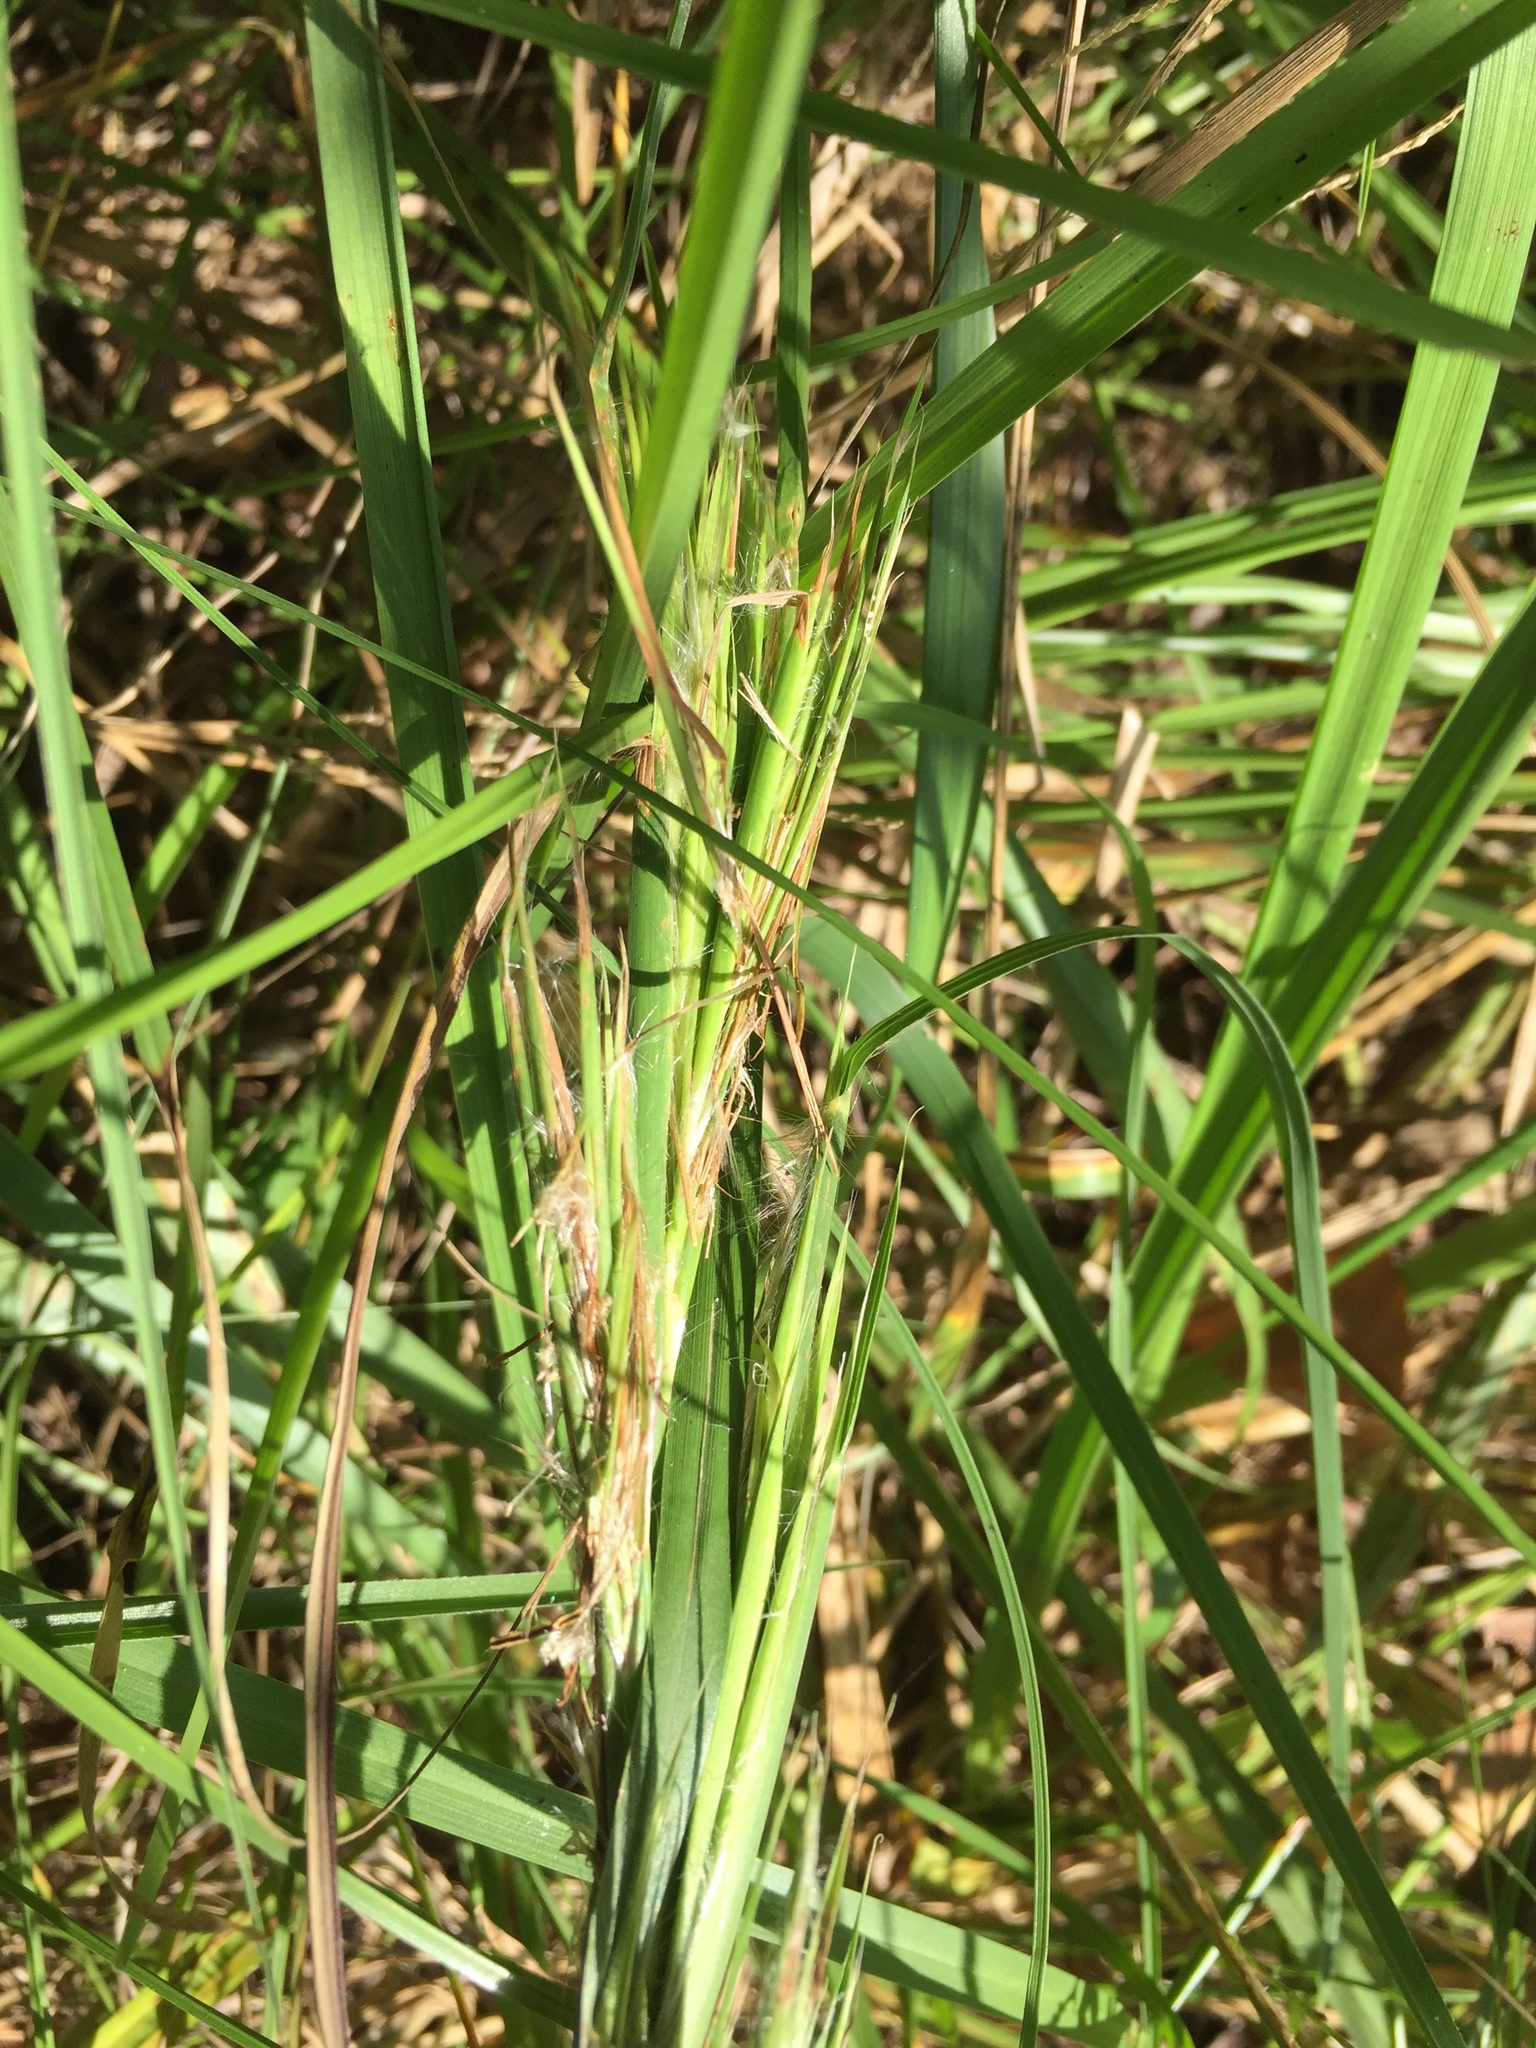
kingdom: Plantae
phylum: Tracheophyta
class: Liliopsida
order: Poales
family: Poaceae
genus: Andropogon
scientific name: Andropogon tenuispatheus
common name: Bushy bluestem
